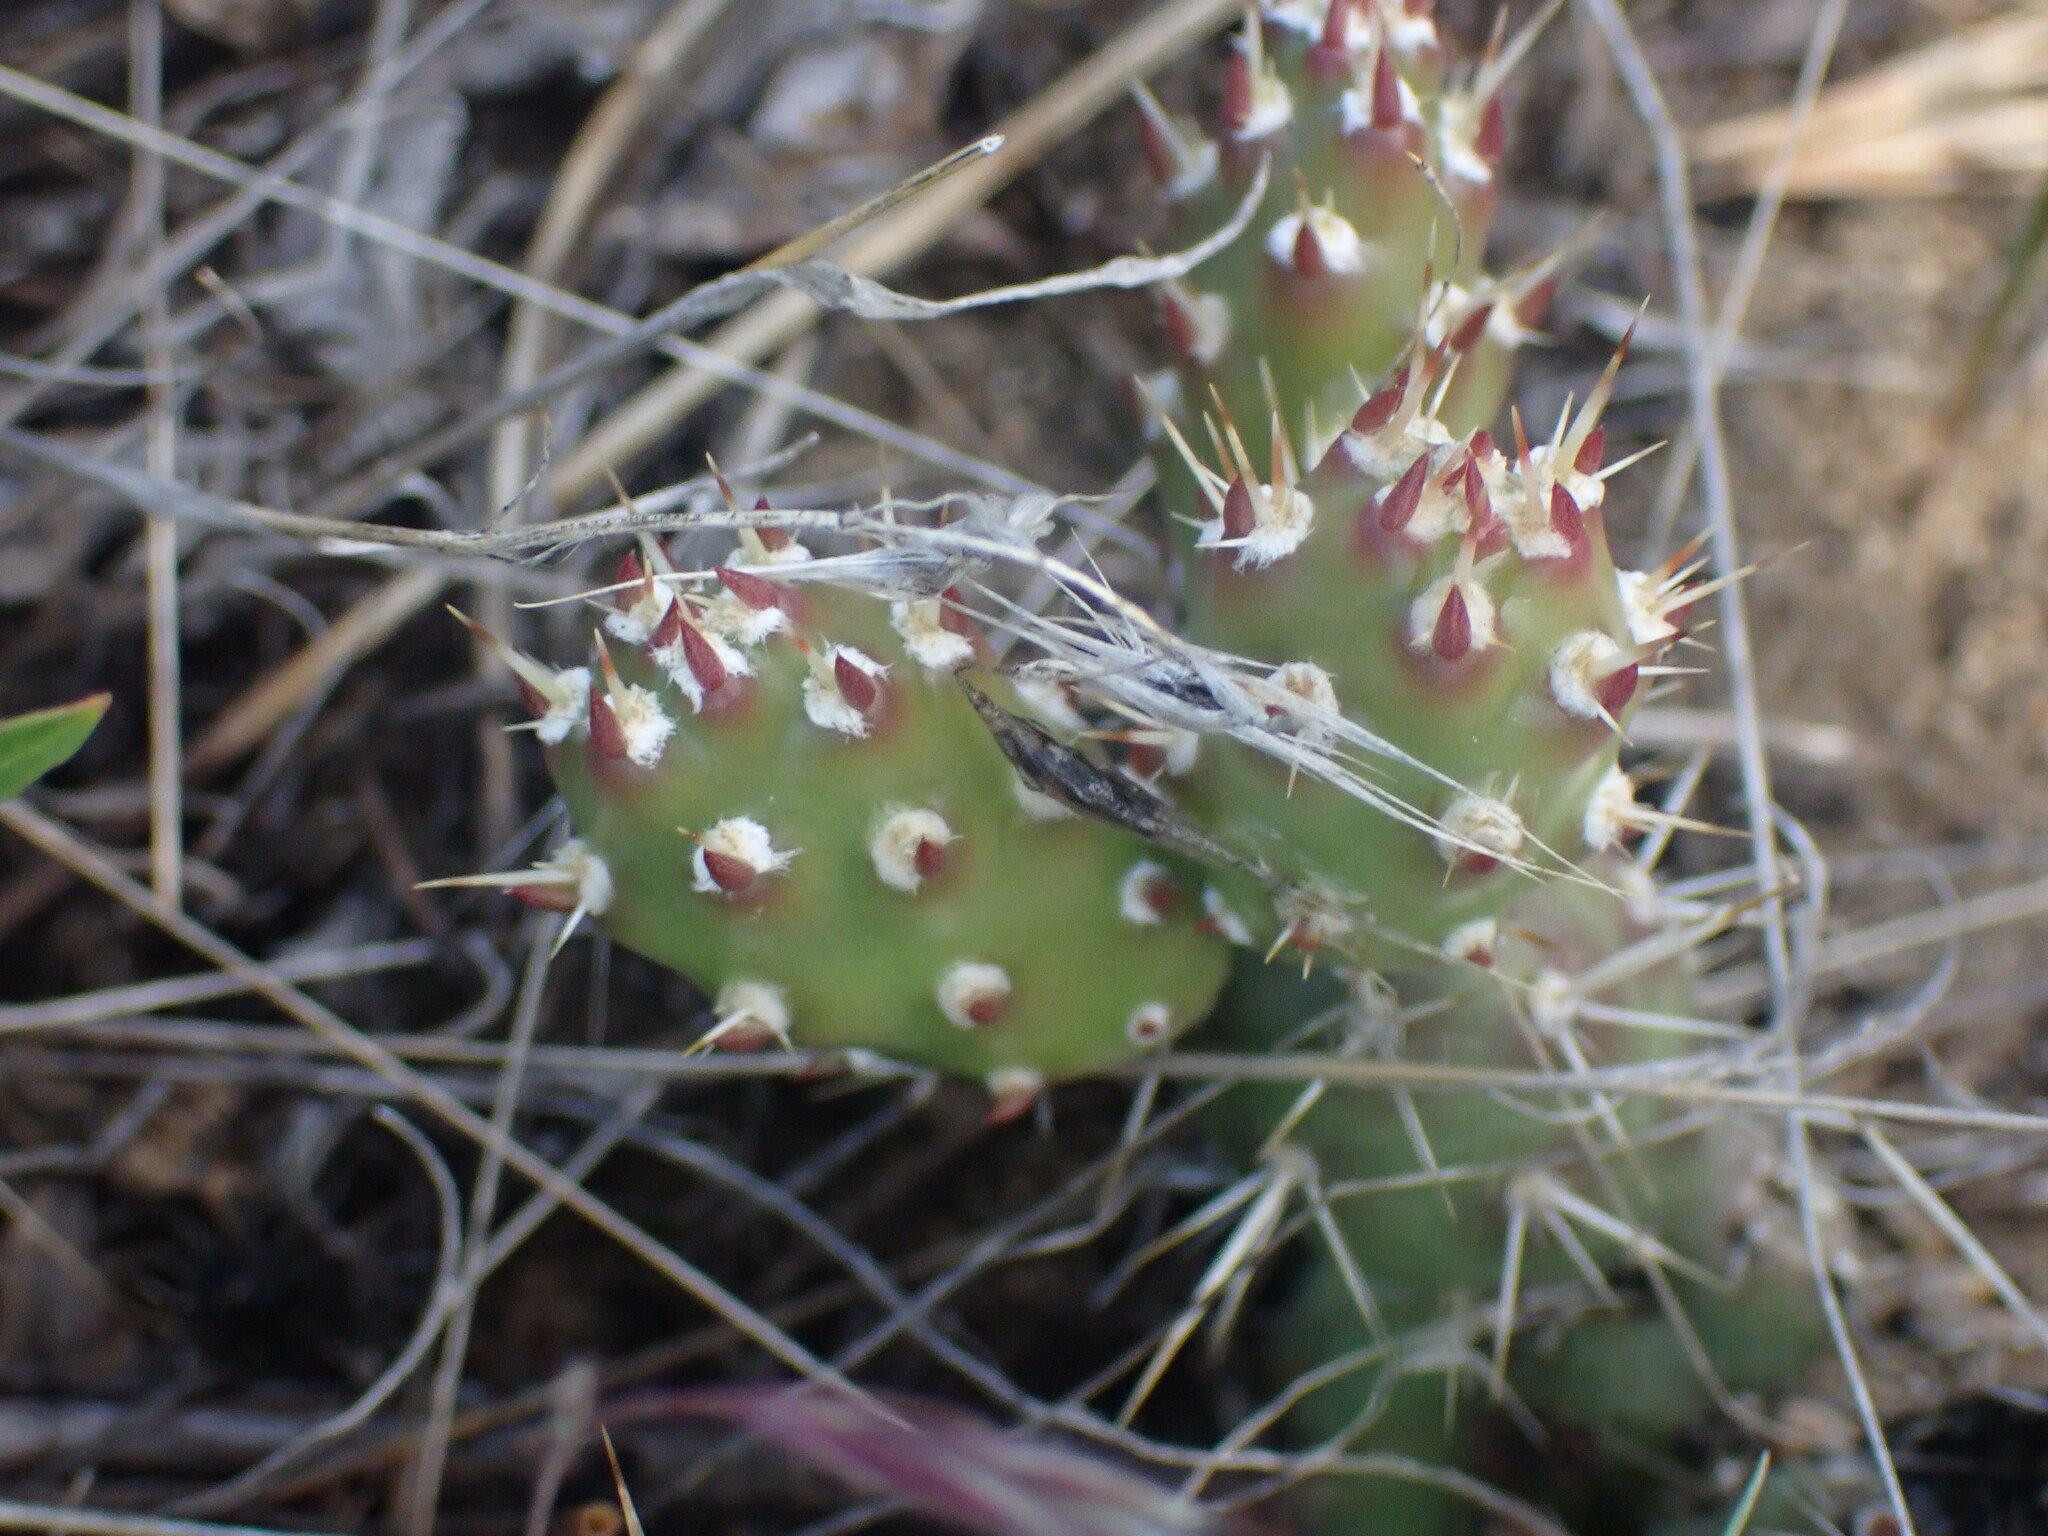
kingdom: Plantae
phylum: Tracheophyta
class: Magnoliopsida
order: Caryophyllales
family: Cactaceae
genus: Opuntia
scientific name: Opuntia fragilis
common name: Brittle cactus
